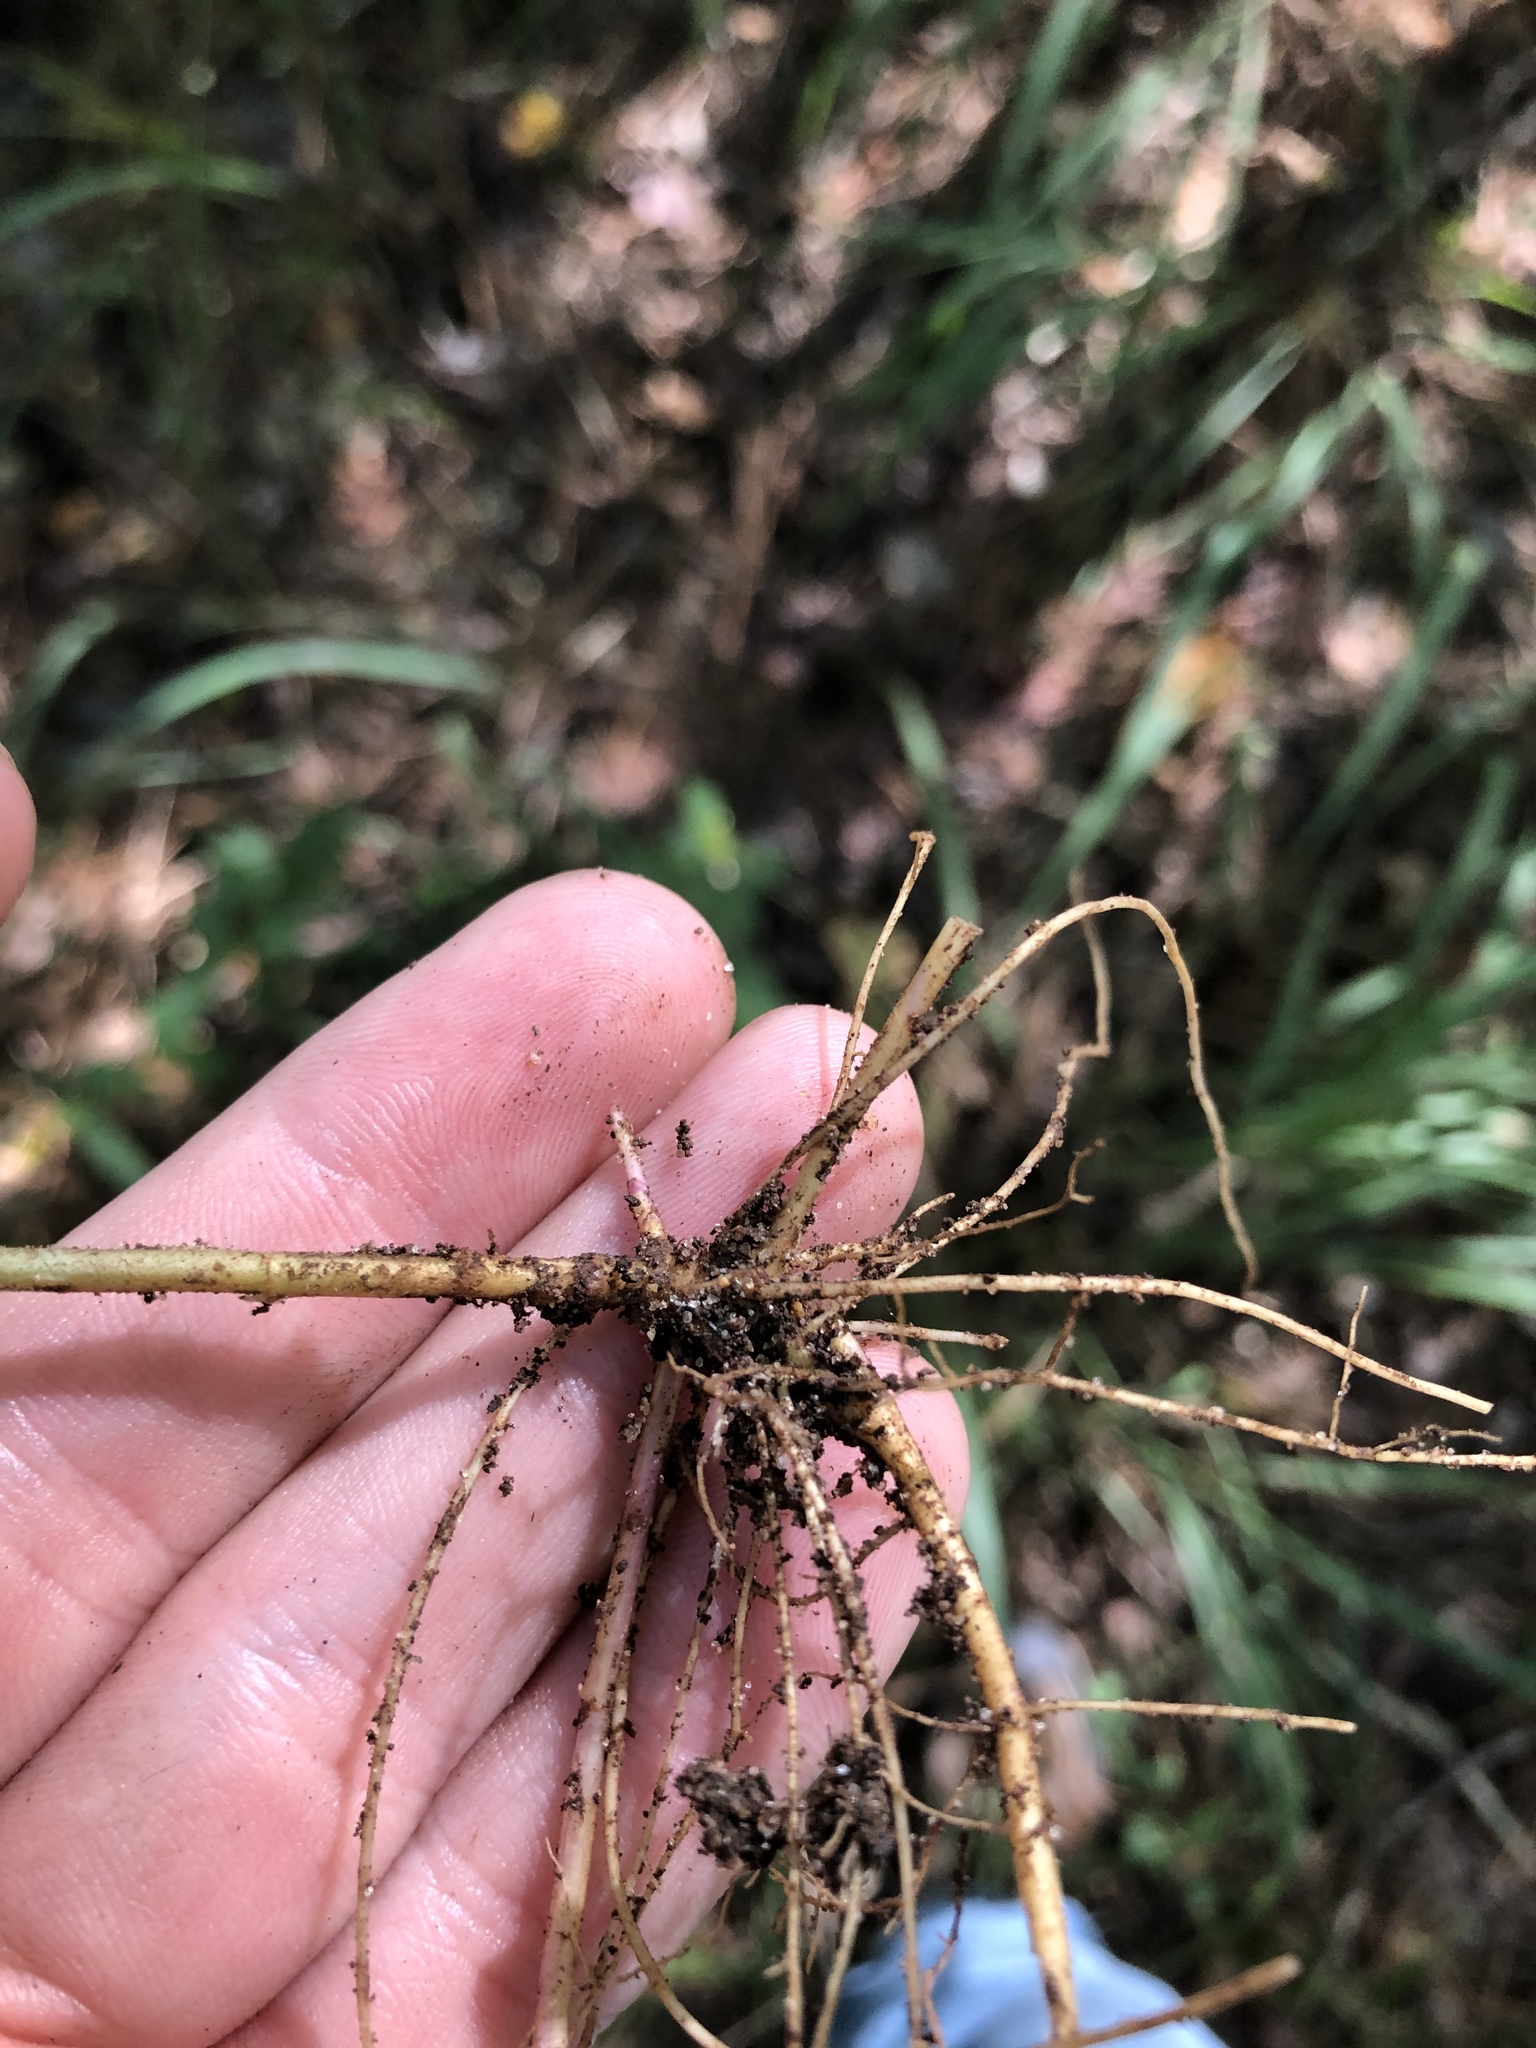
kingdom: Plantae
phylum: Tracheophyta
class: Magnoliopsida
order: Asterales
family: Asteraceae
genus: Solidago
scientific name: Solidago rugosa
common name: Rough-stemmed goldenrod
